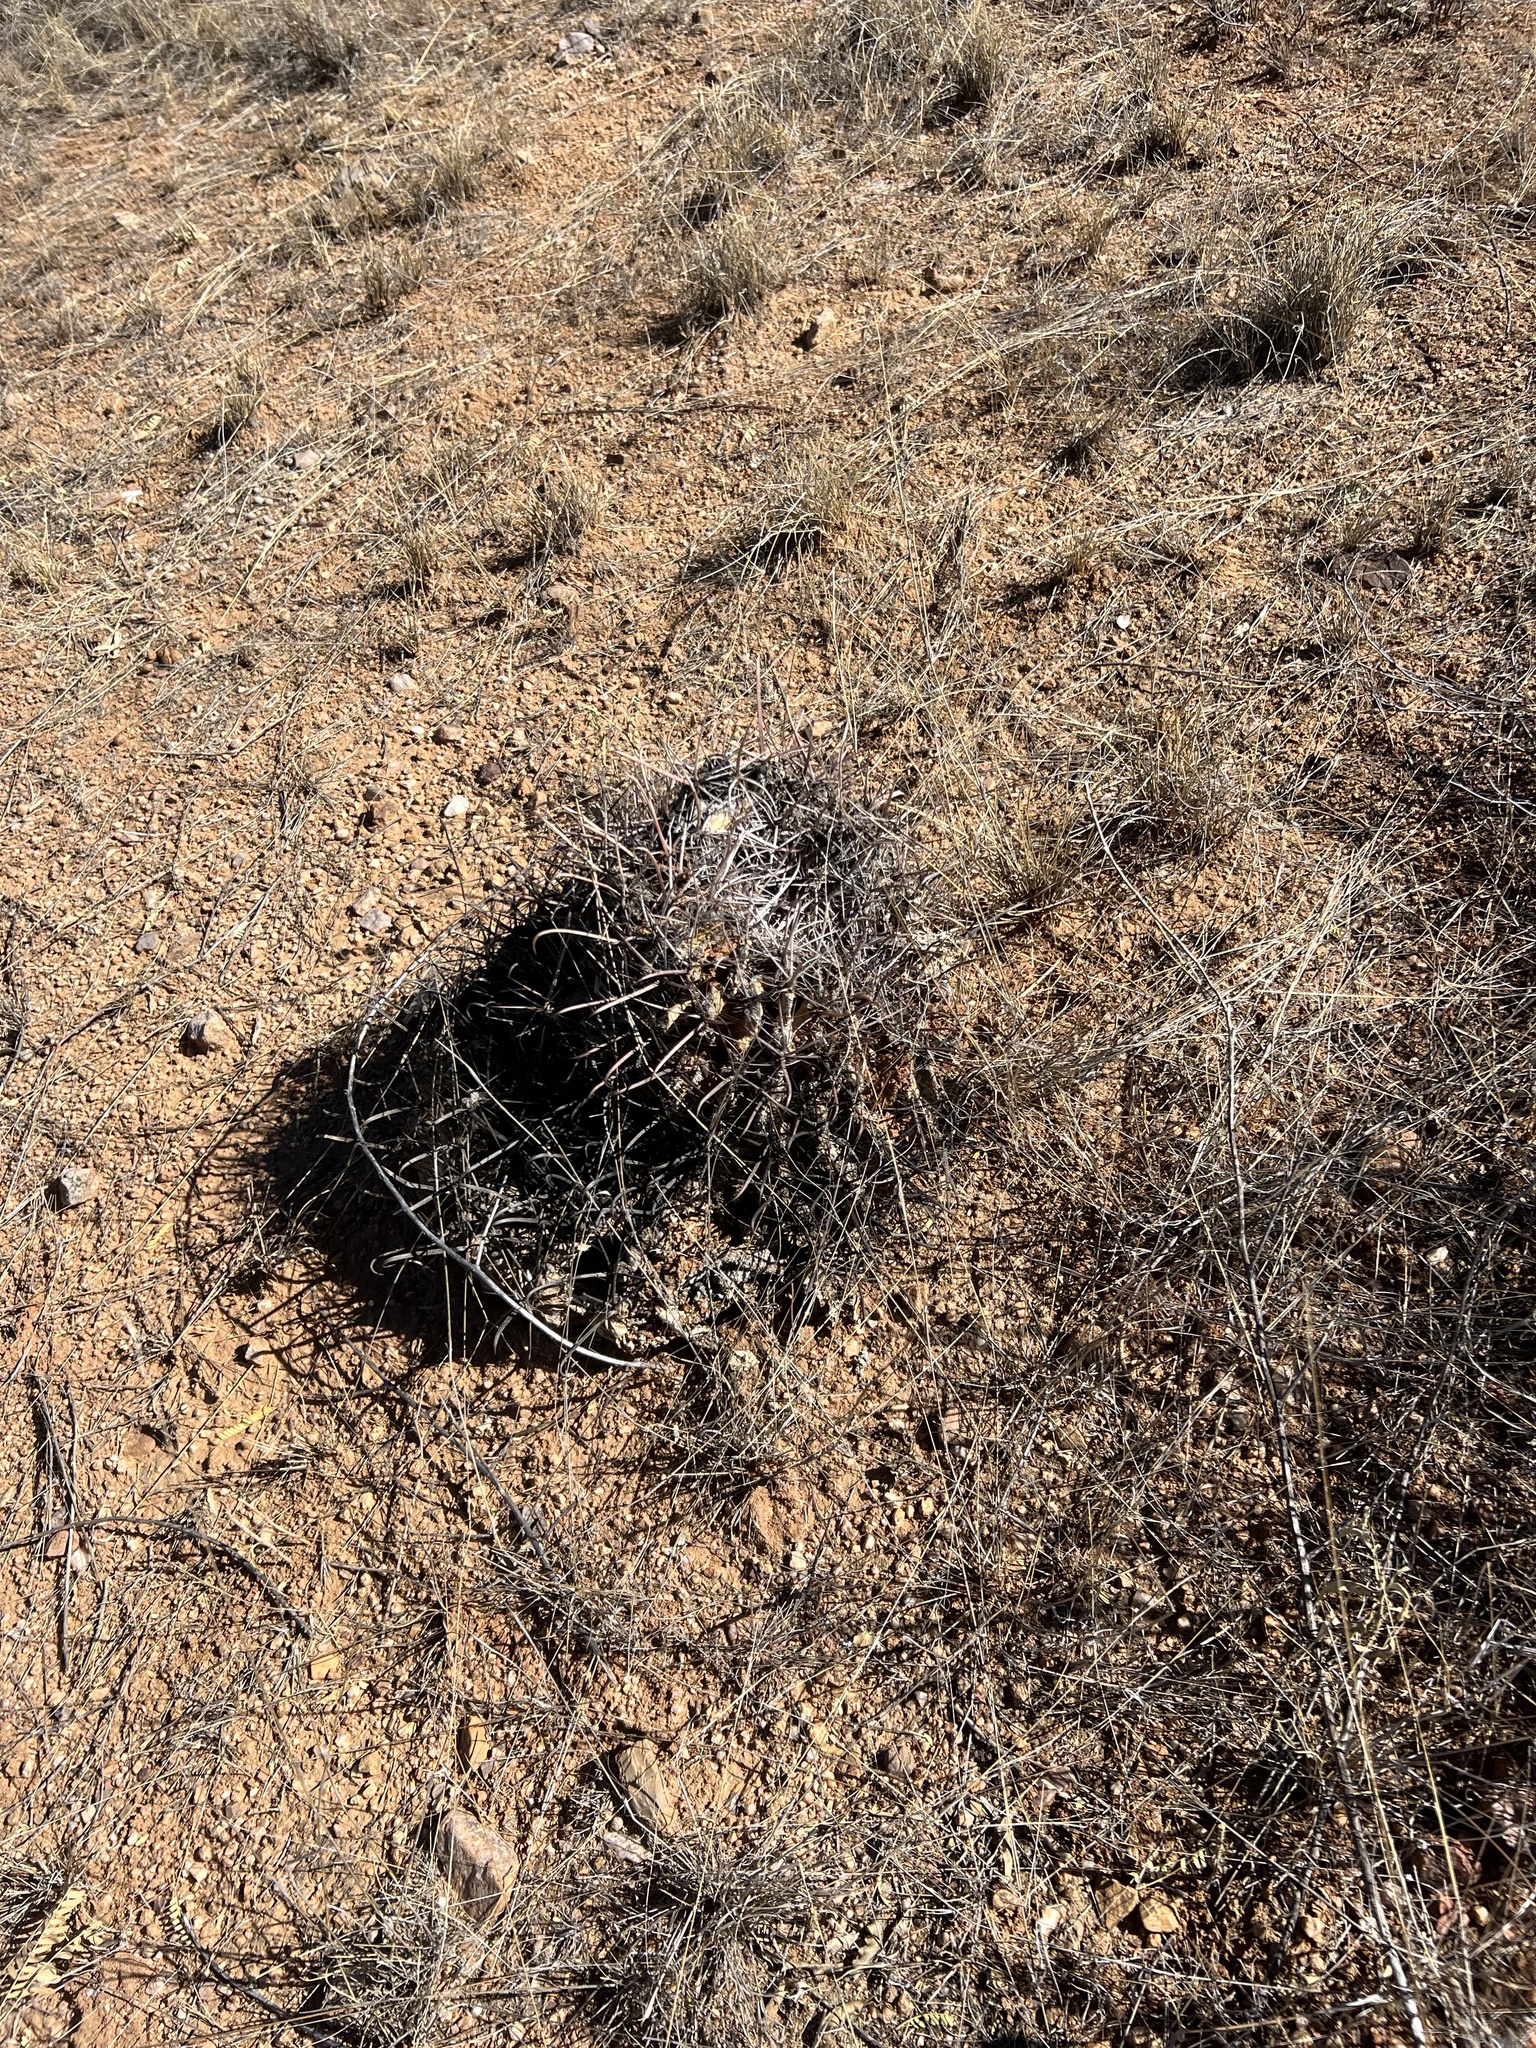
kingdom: Plantae
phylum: Tracheophyta
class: Magnoliopsida
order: Caryophyllales
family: Cactaceae
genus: Ferocactus
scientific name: Ferocactus wislizeni
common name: Candy barrel cactus
